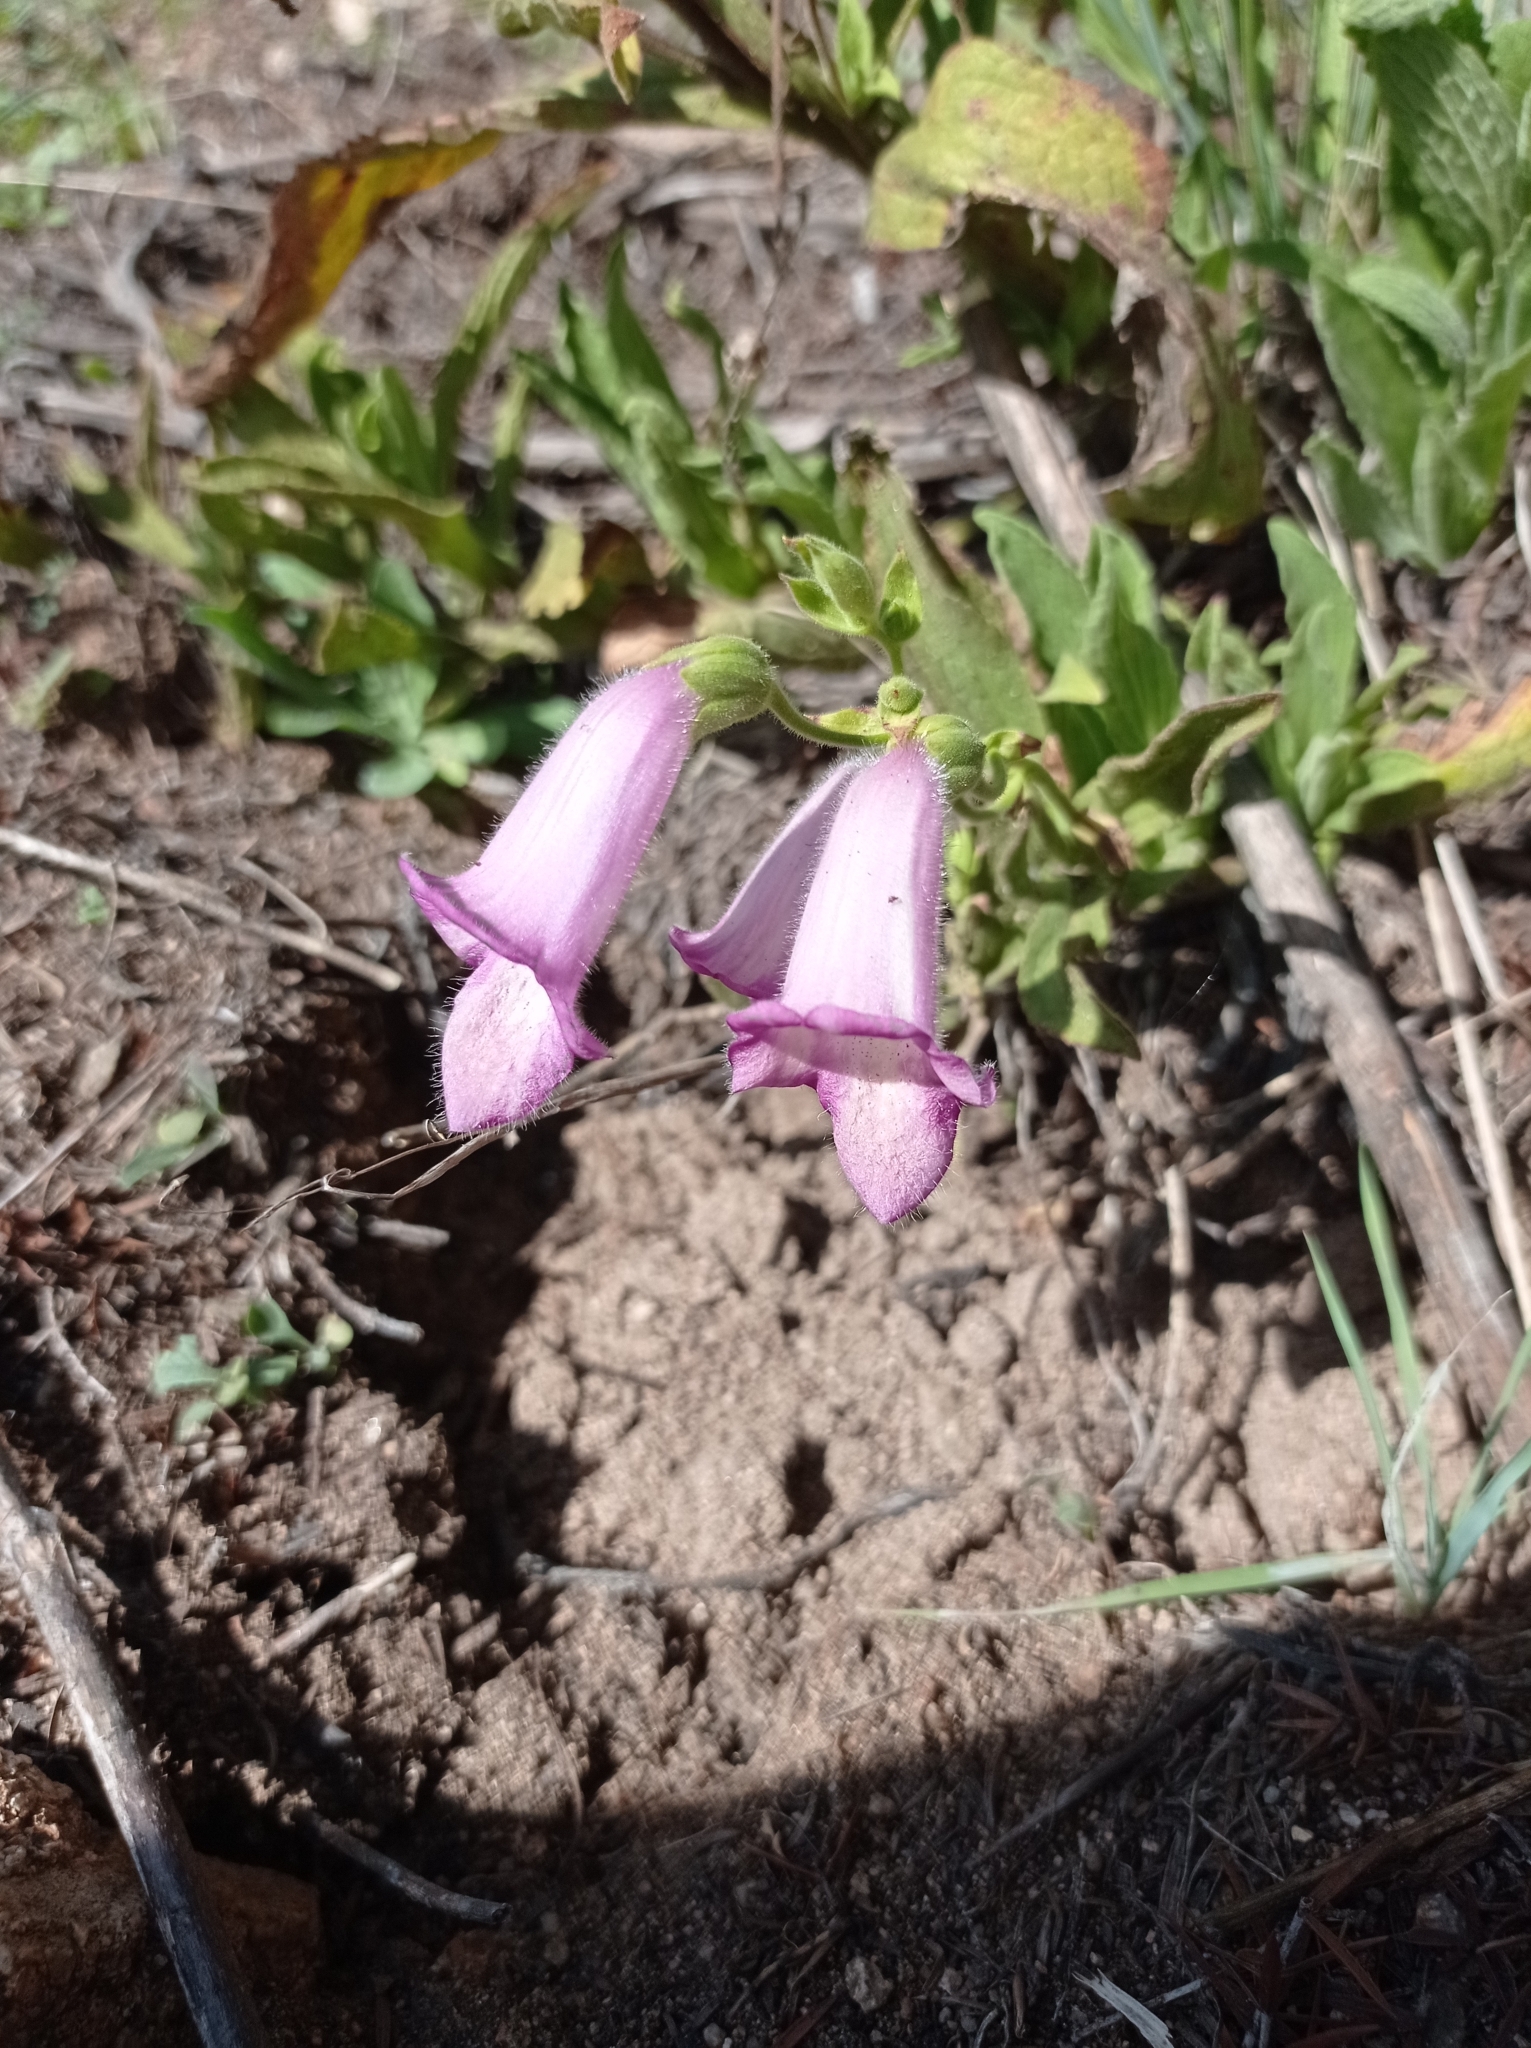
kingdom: Plantae
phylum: Tracheophyta
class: Magnoliopsida
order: Lamiales
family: Plantaginaceae
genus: Digitalis
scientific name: Digitalis thapsi
